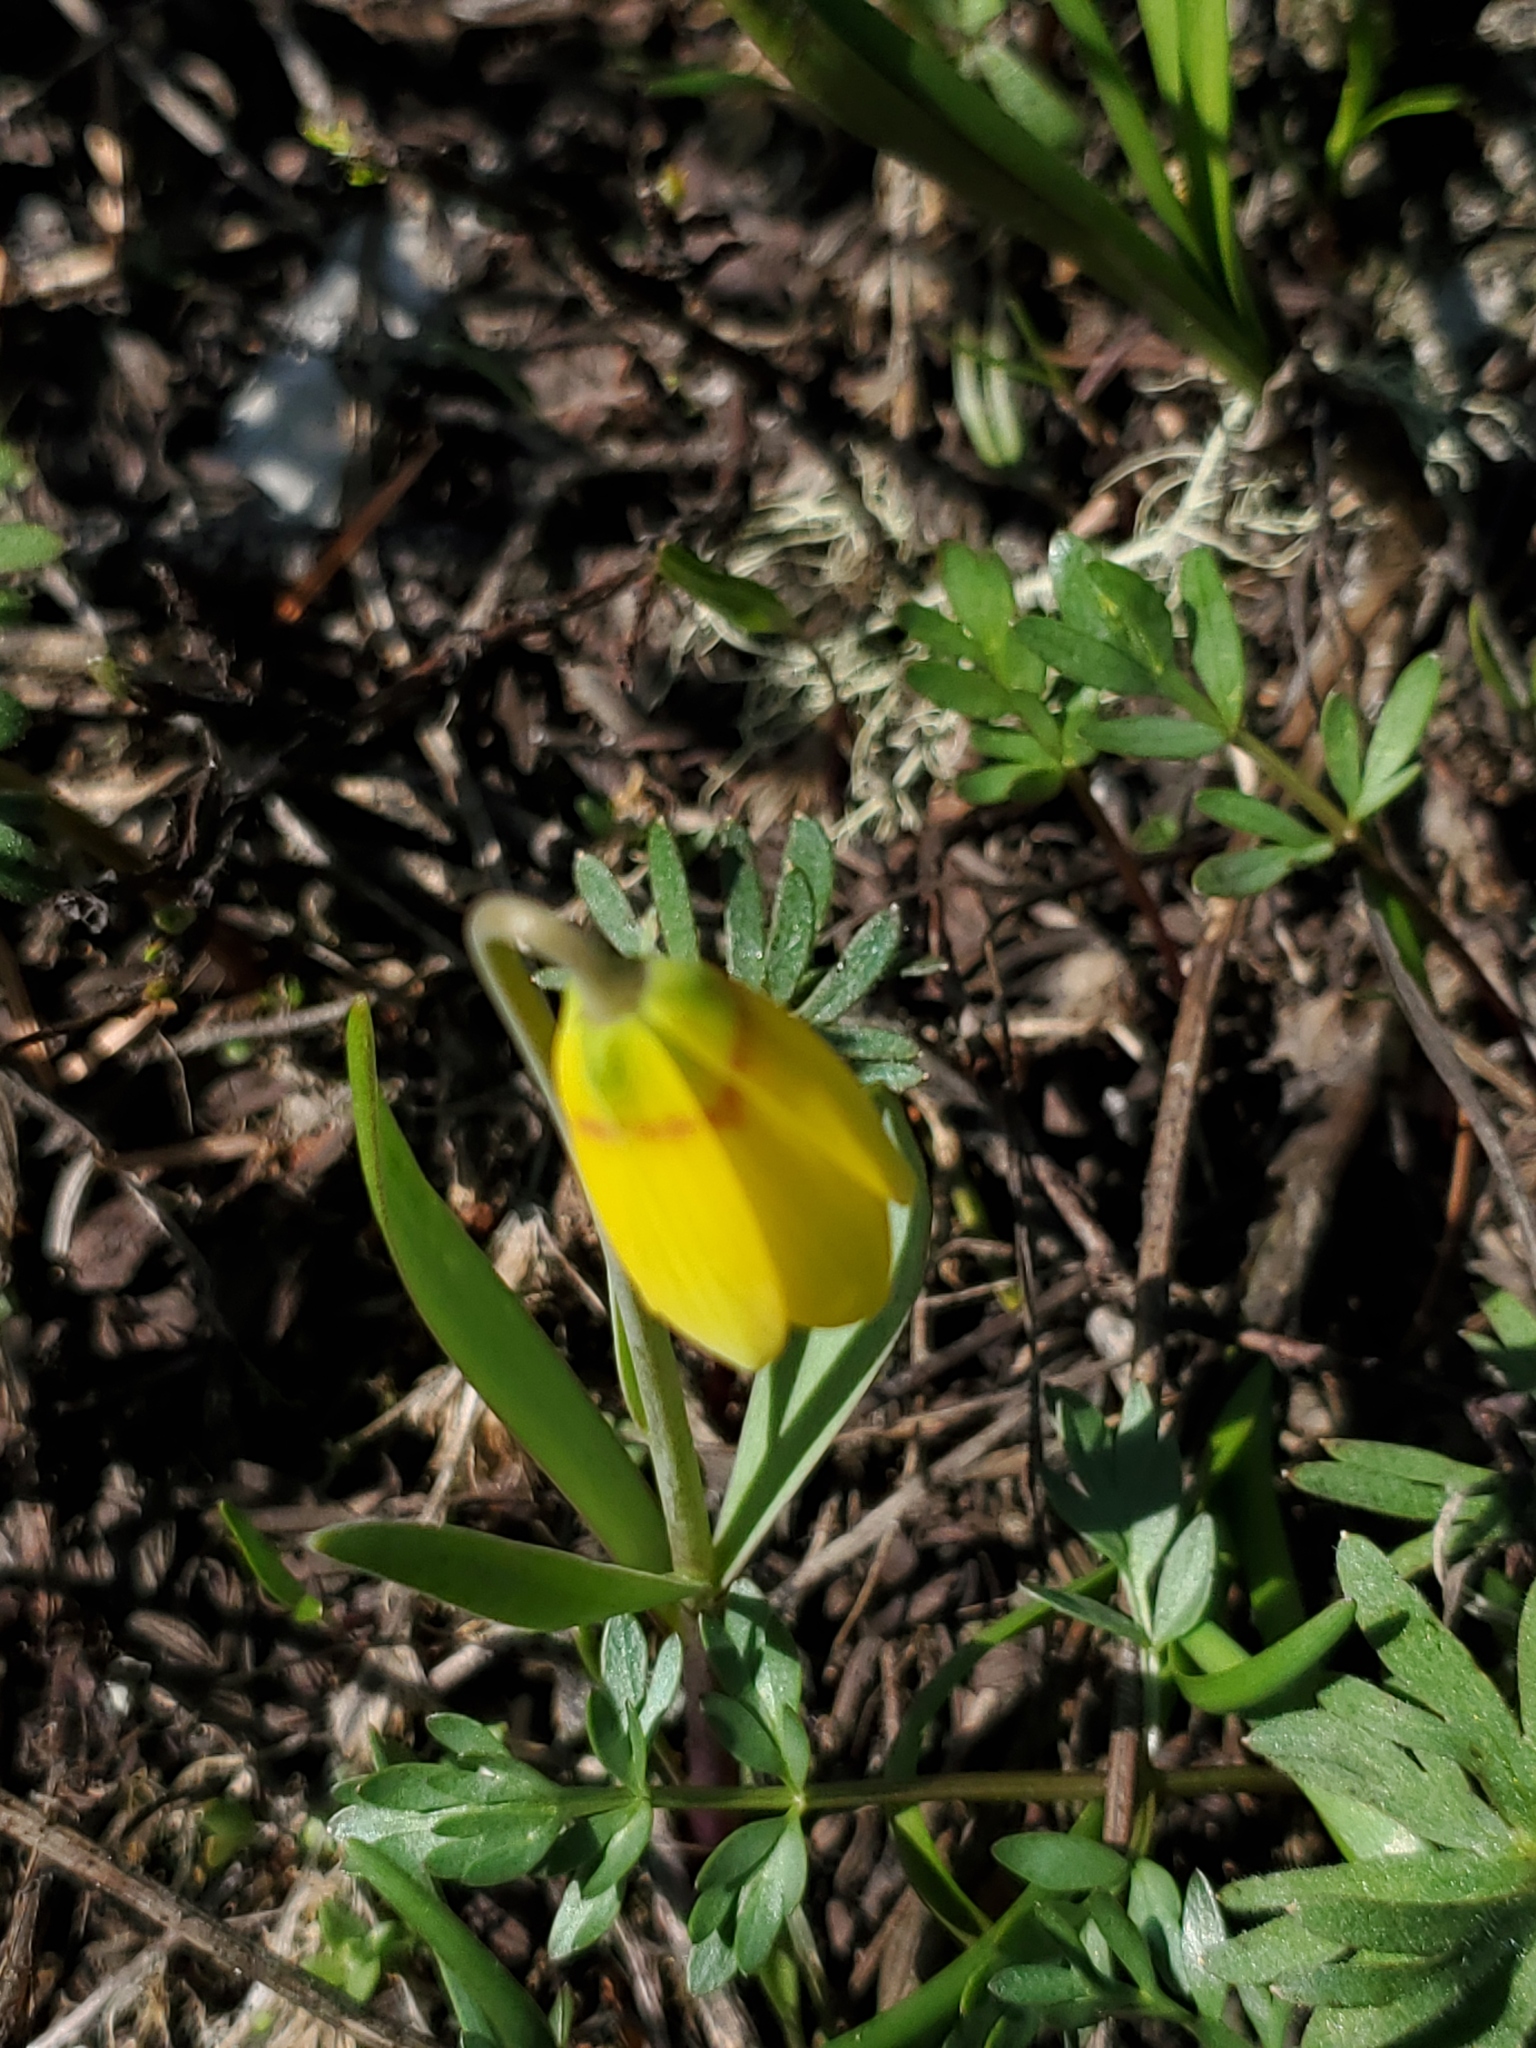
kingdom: Plantae
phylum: Tracheophyta
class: Liliopsida
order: Liliales
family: Liliaceae
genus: Fritillaria
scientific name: Fritillaria pudica
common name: Yellow fritillary
